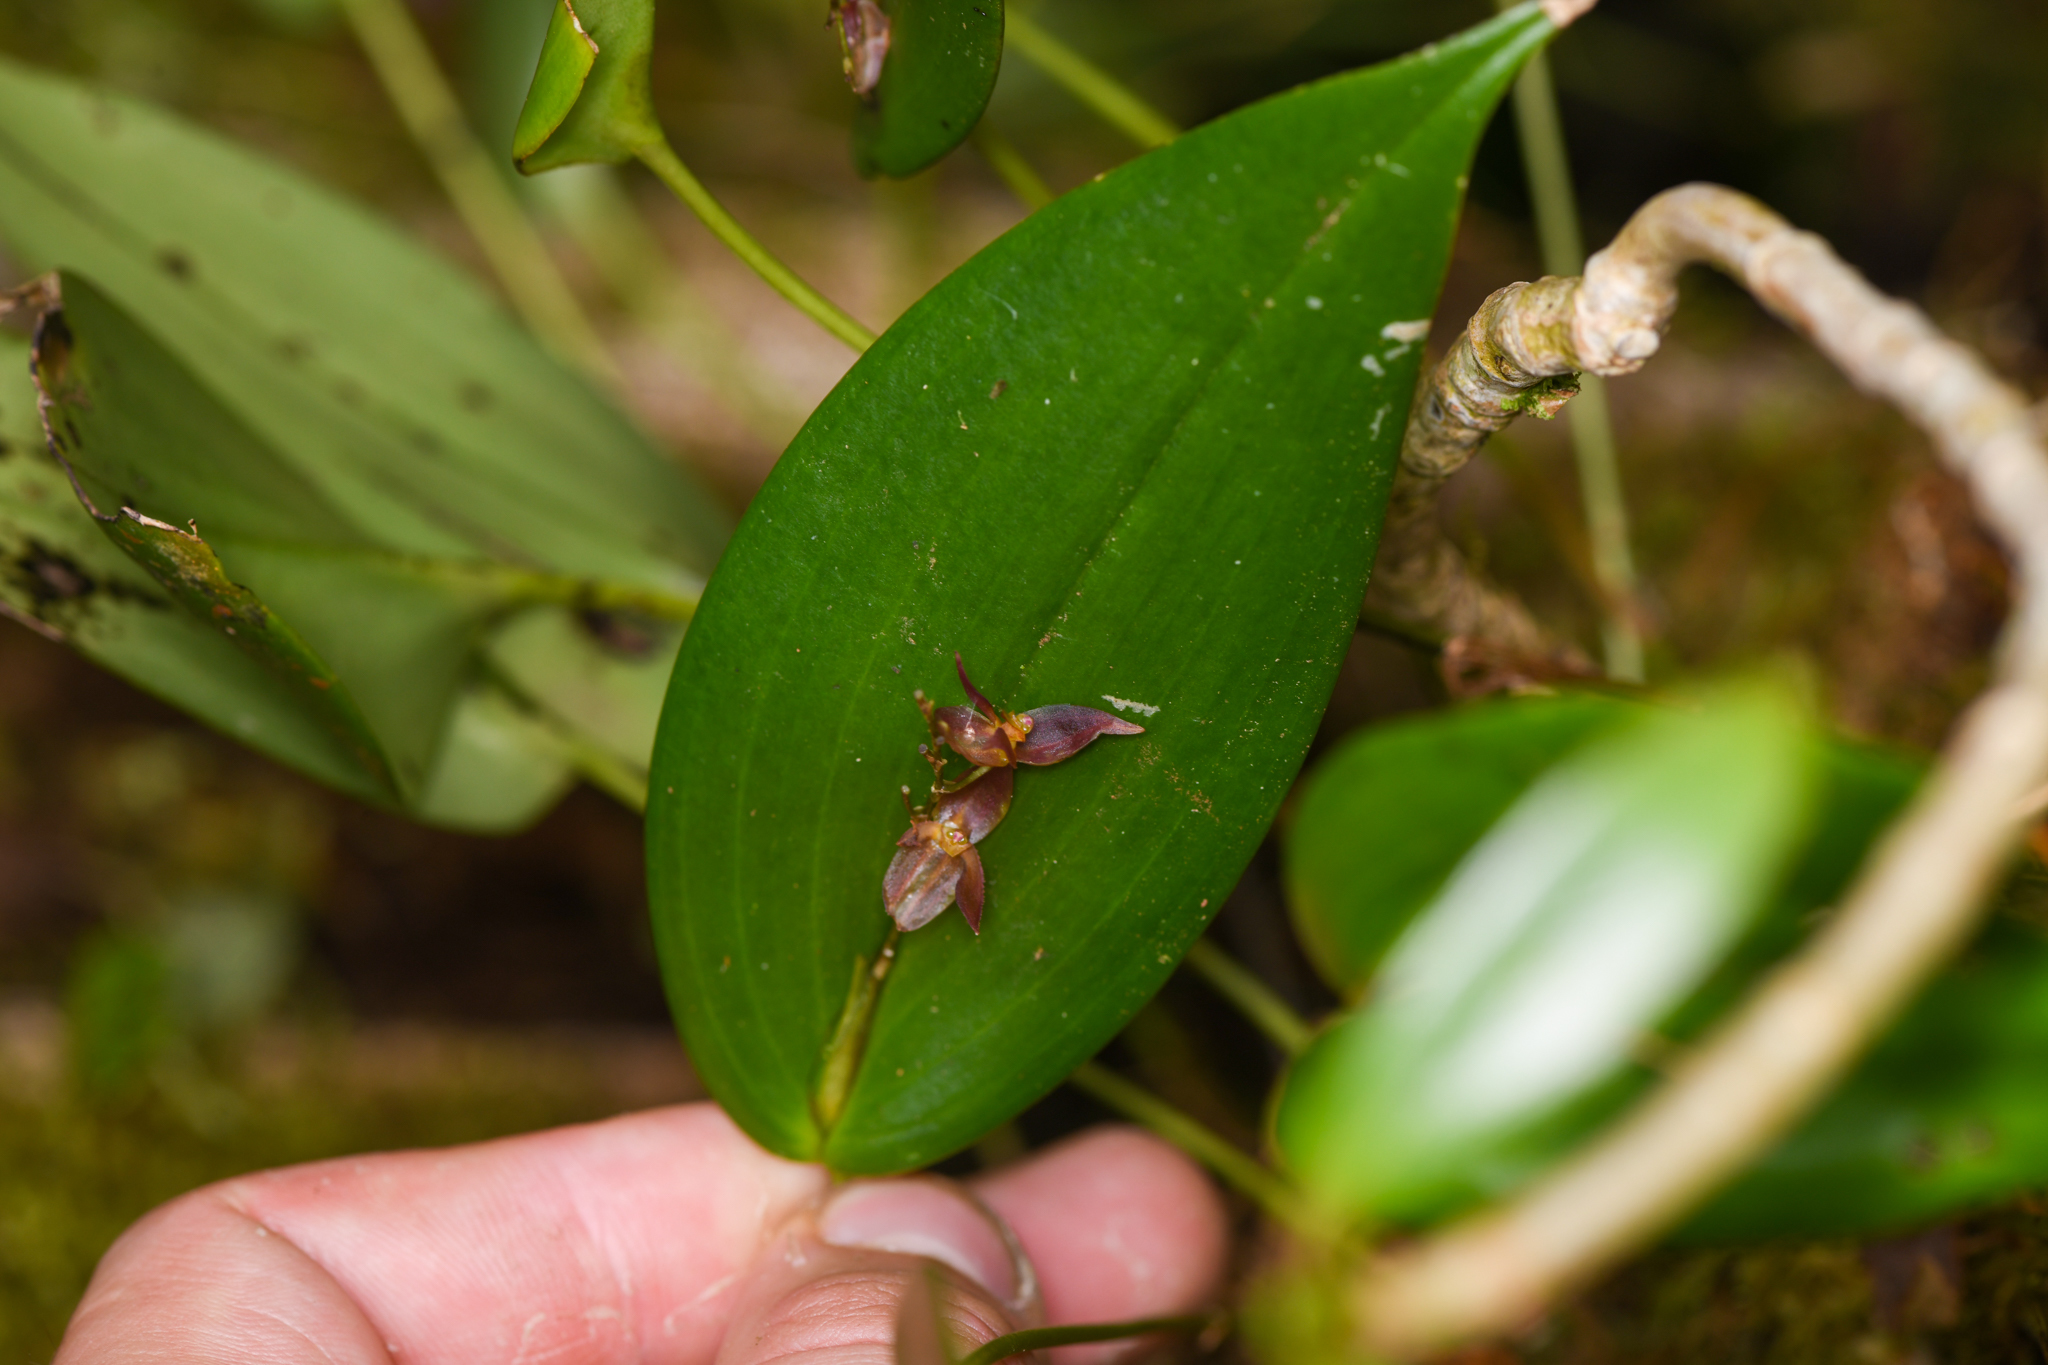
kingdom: Plantae
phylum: Tracheophyta
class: Liliopsida
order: Asparagales
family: Orchidaceae
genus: Pleurothallis
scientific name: Pleurothallis rowleei
